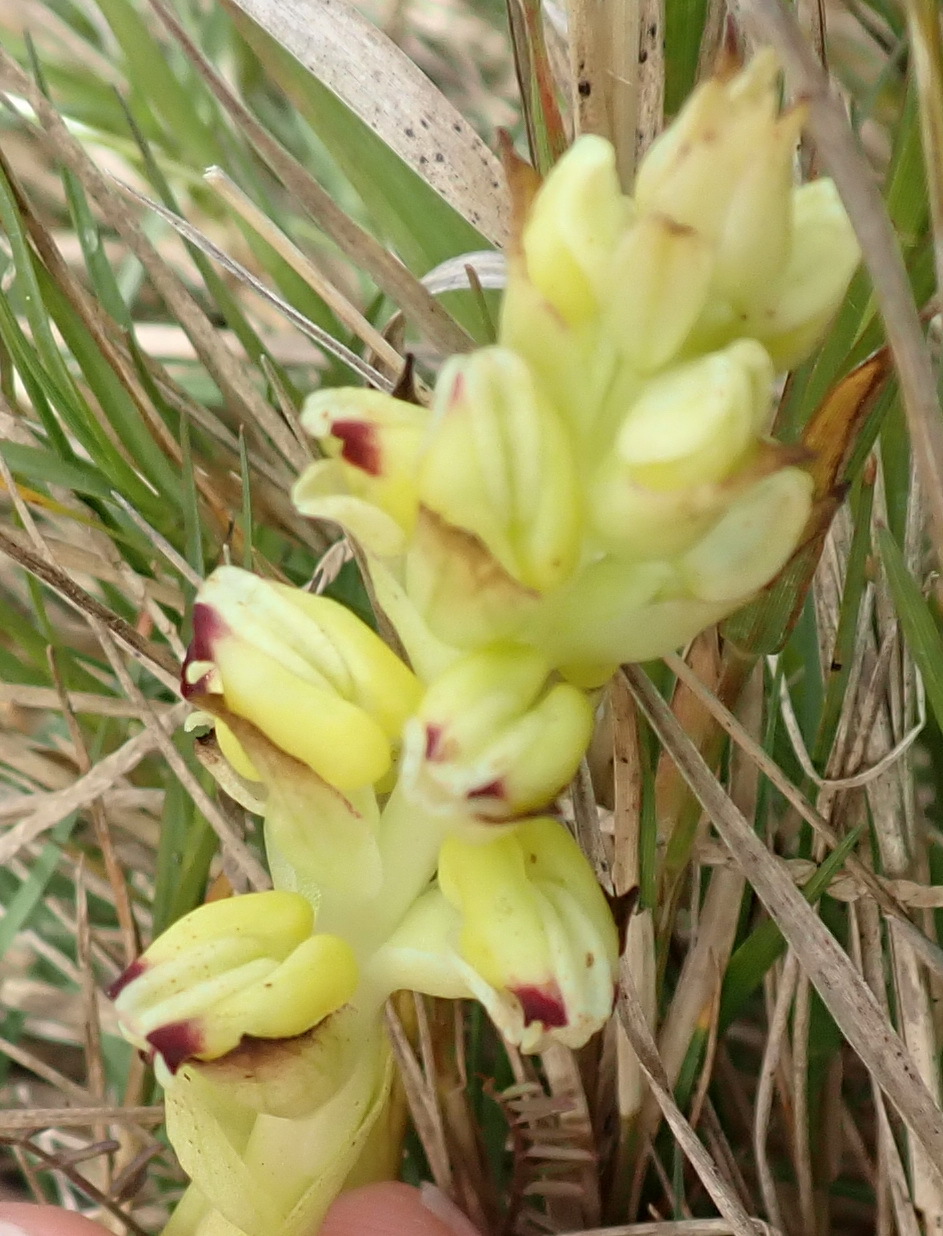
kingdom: Plantae
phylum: Tracheophyta
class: Liliopsida
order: Asparagales
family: Orchidaceae
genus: Corycium
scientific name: Corycium orobanchoides
